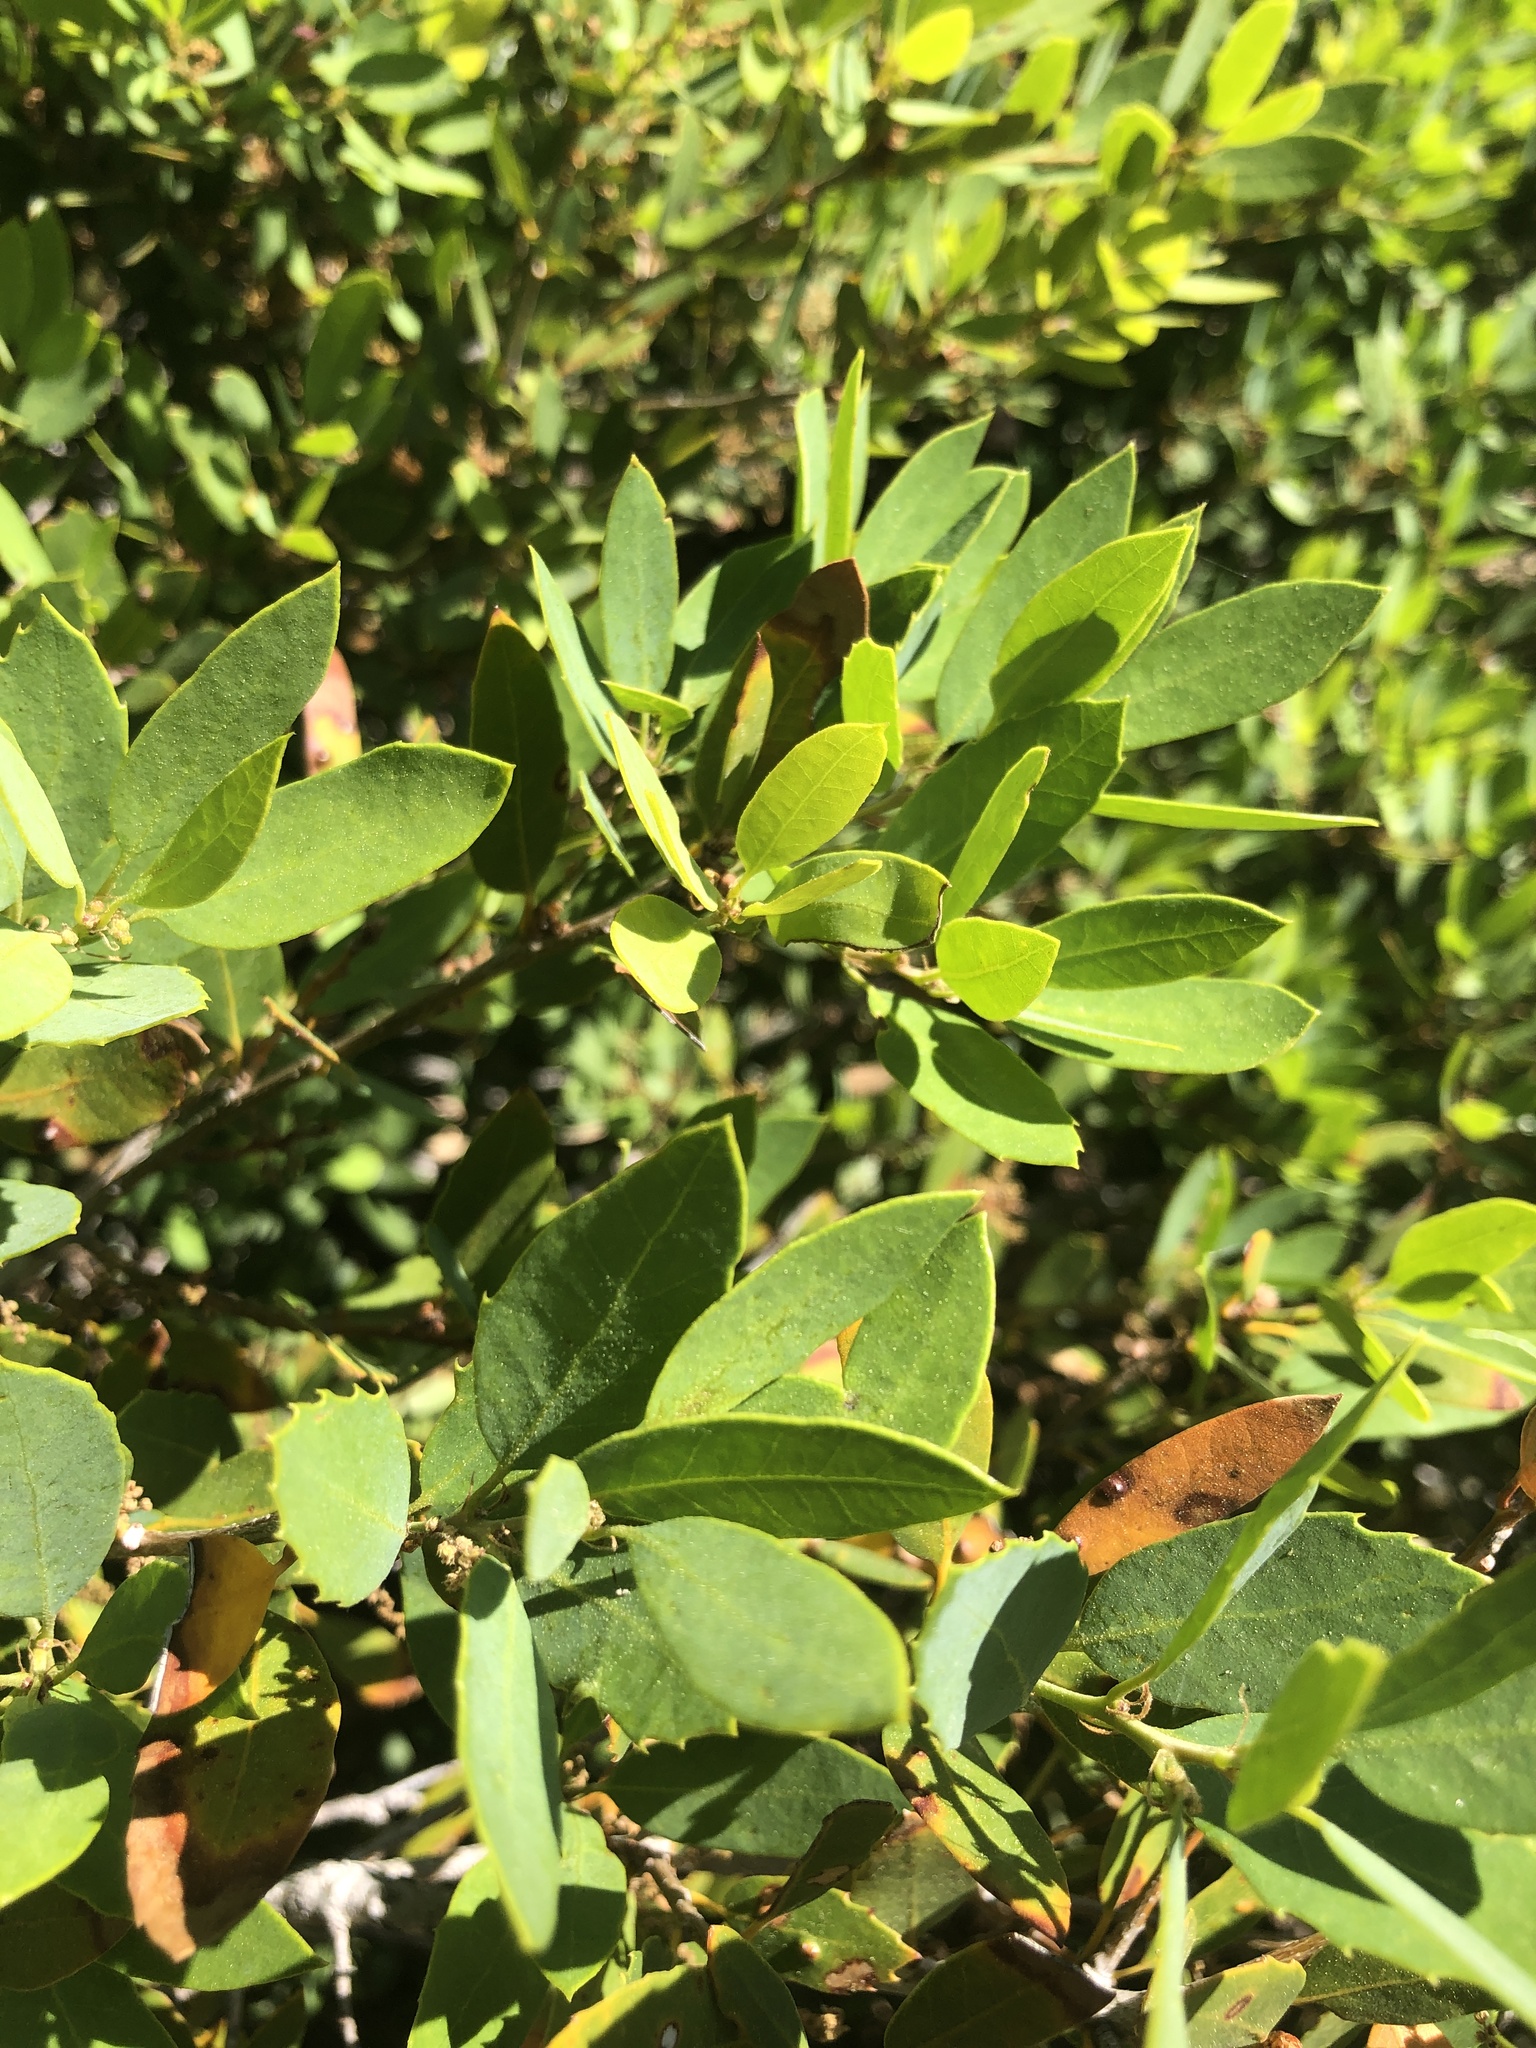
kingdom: Plantae
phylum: Tracheophyta
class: Magnoliopsida
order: Fagales
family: Fagaceae
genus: Quercus
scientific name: Quercus vacciniifolia
